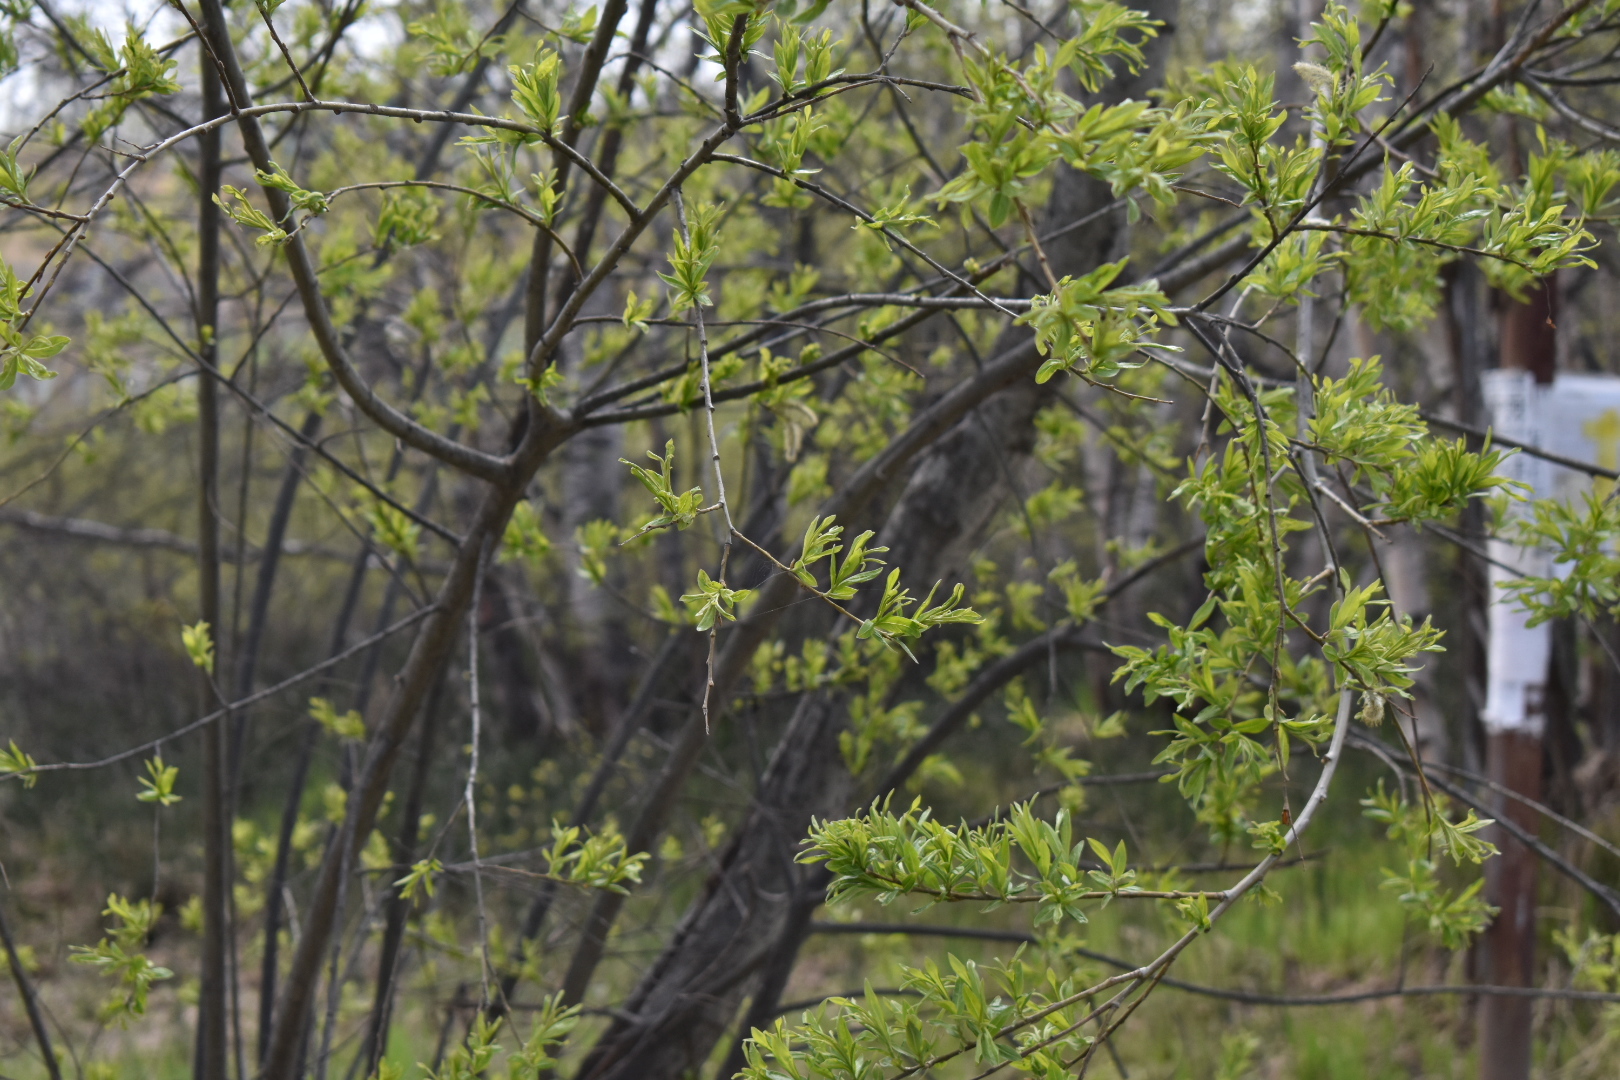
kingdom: Plantae
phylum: Tracheophyta
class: Magnoliopsida
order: Malpighiales
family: Salicaceae
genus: Salix
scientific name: Salix udensis
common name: Sachalin willow
